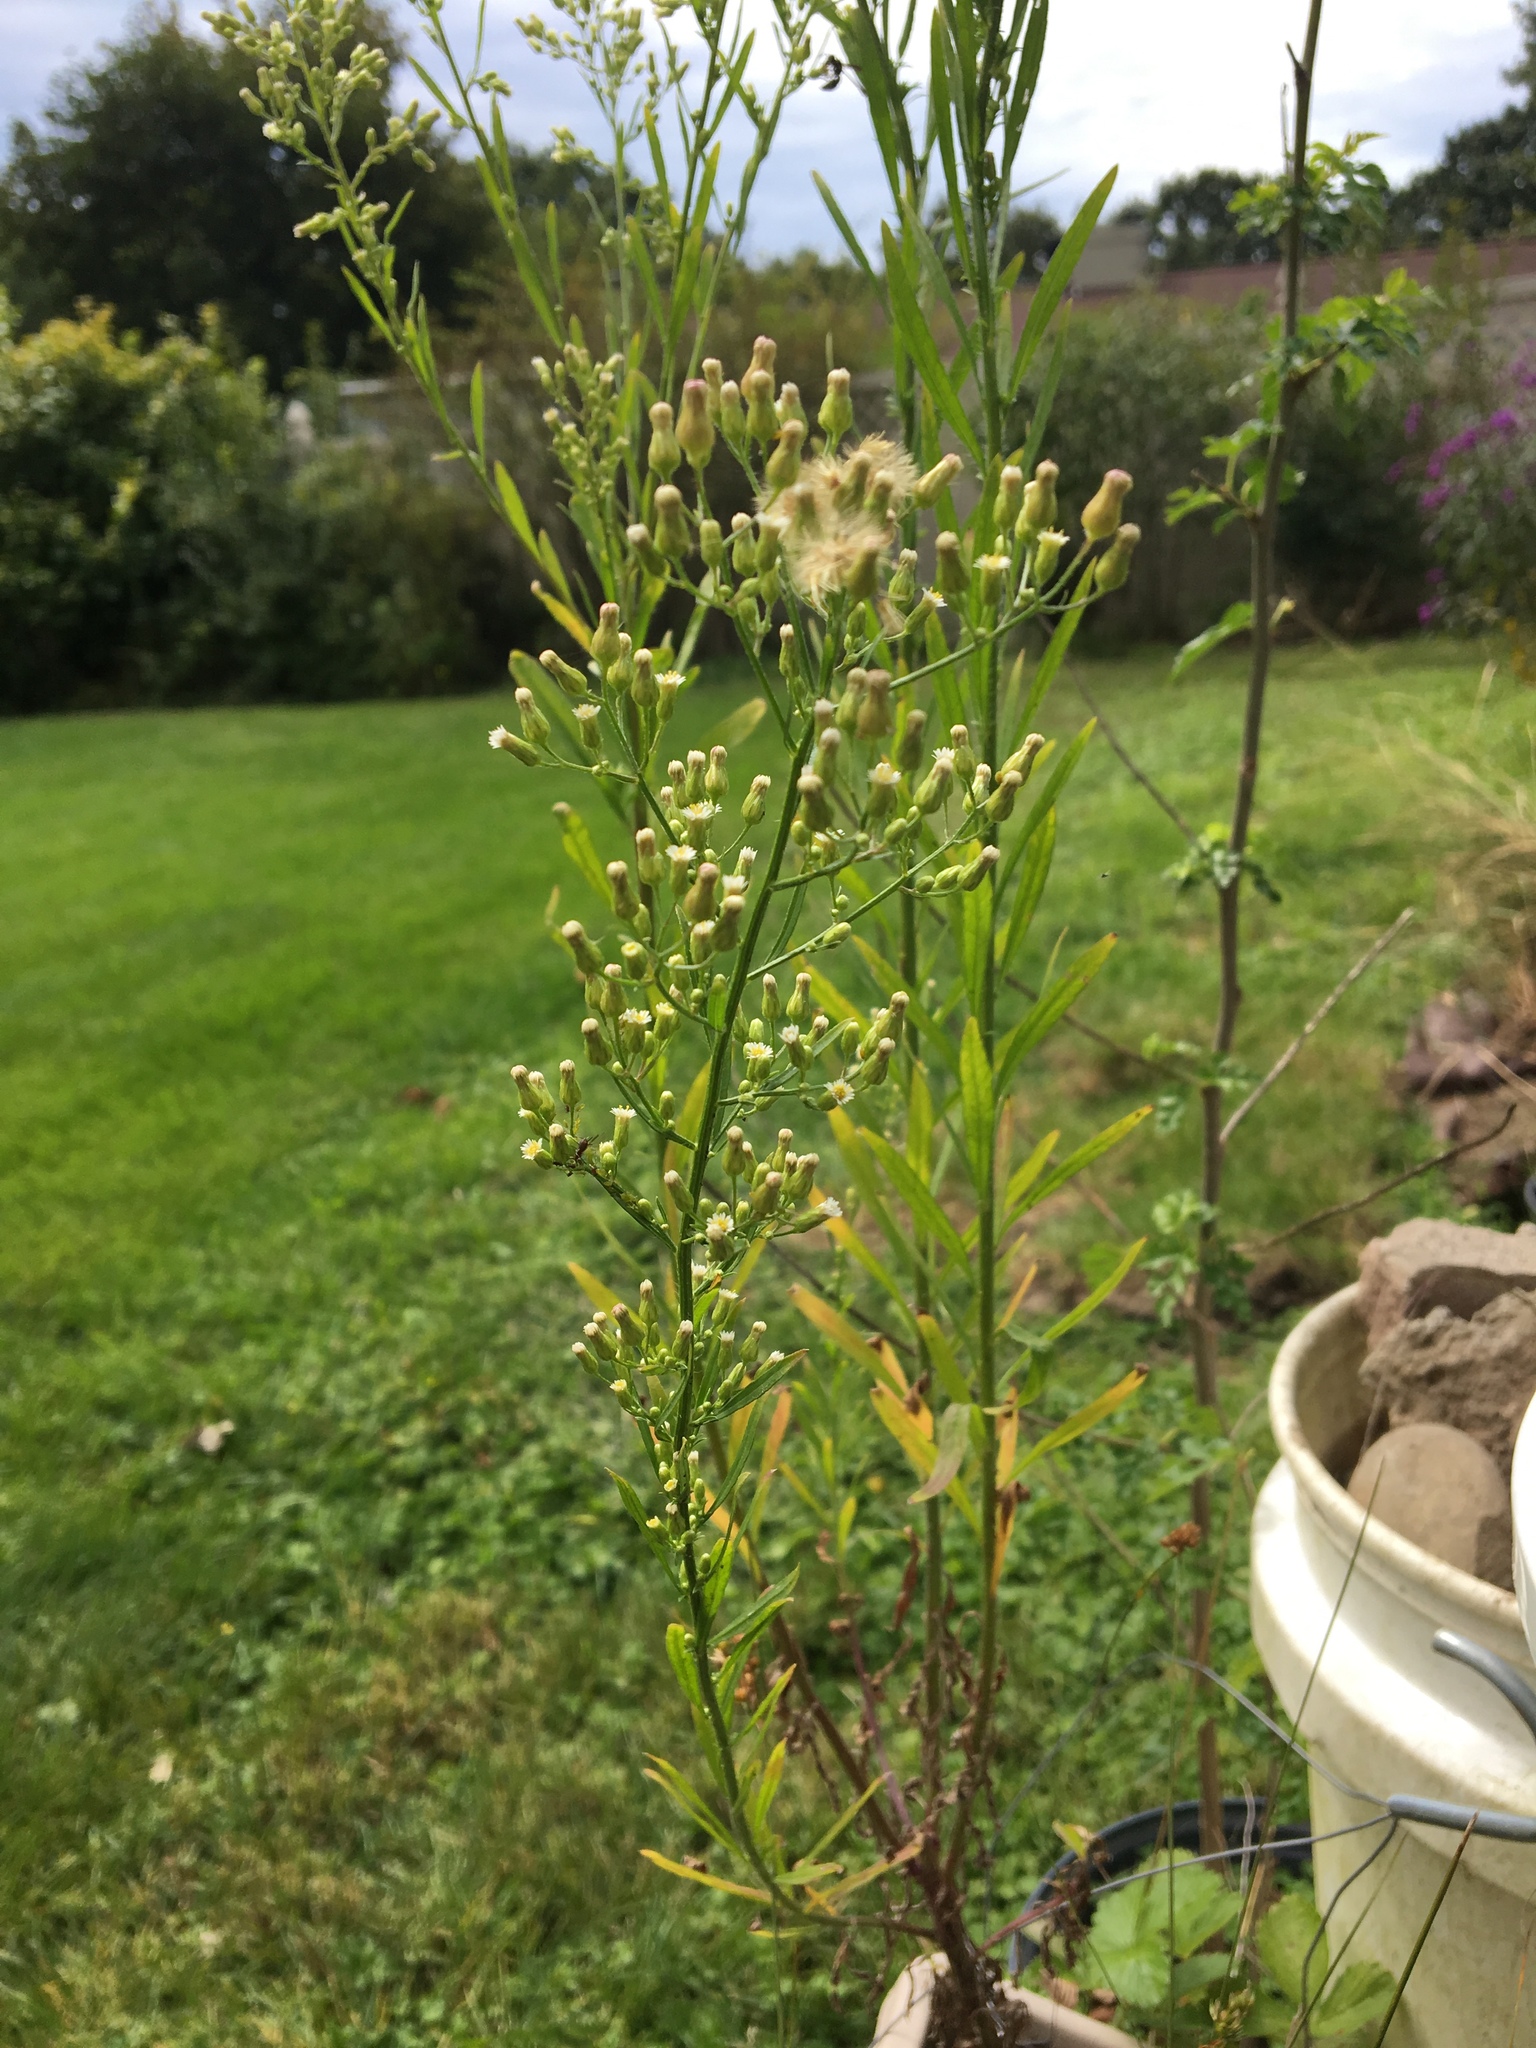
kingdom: Plantae
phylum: Tracheophyta
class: Magnoliopsida
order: Asterales
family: Asteraceae
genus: Erigeron
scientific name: Erigeron canadensis
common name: Canadian fleabane
